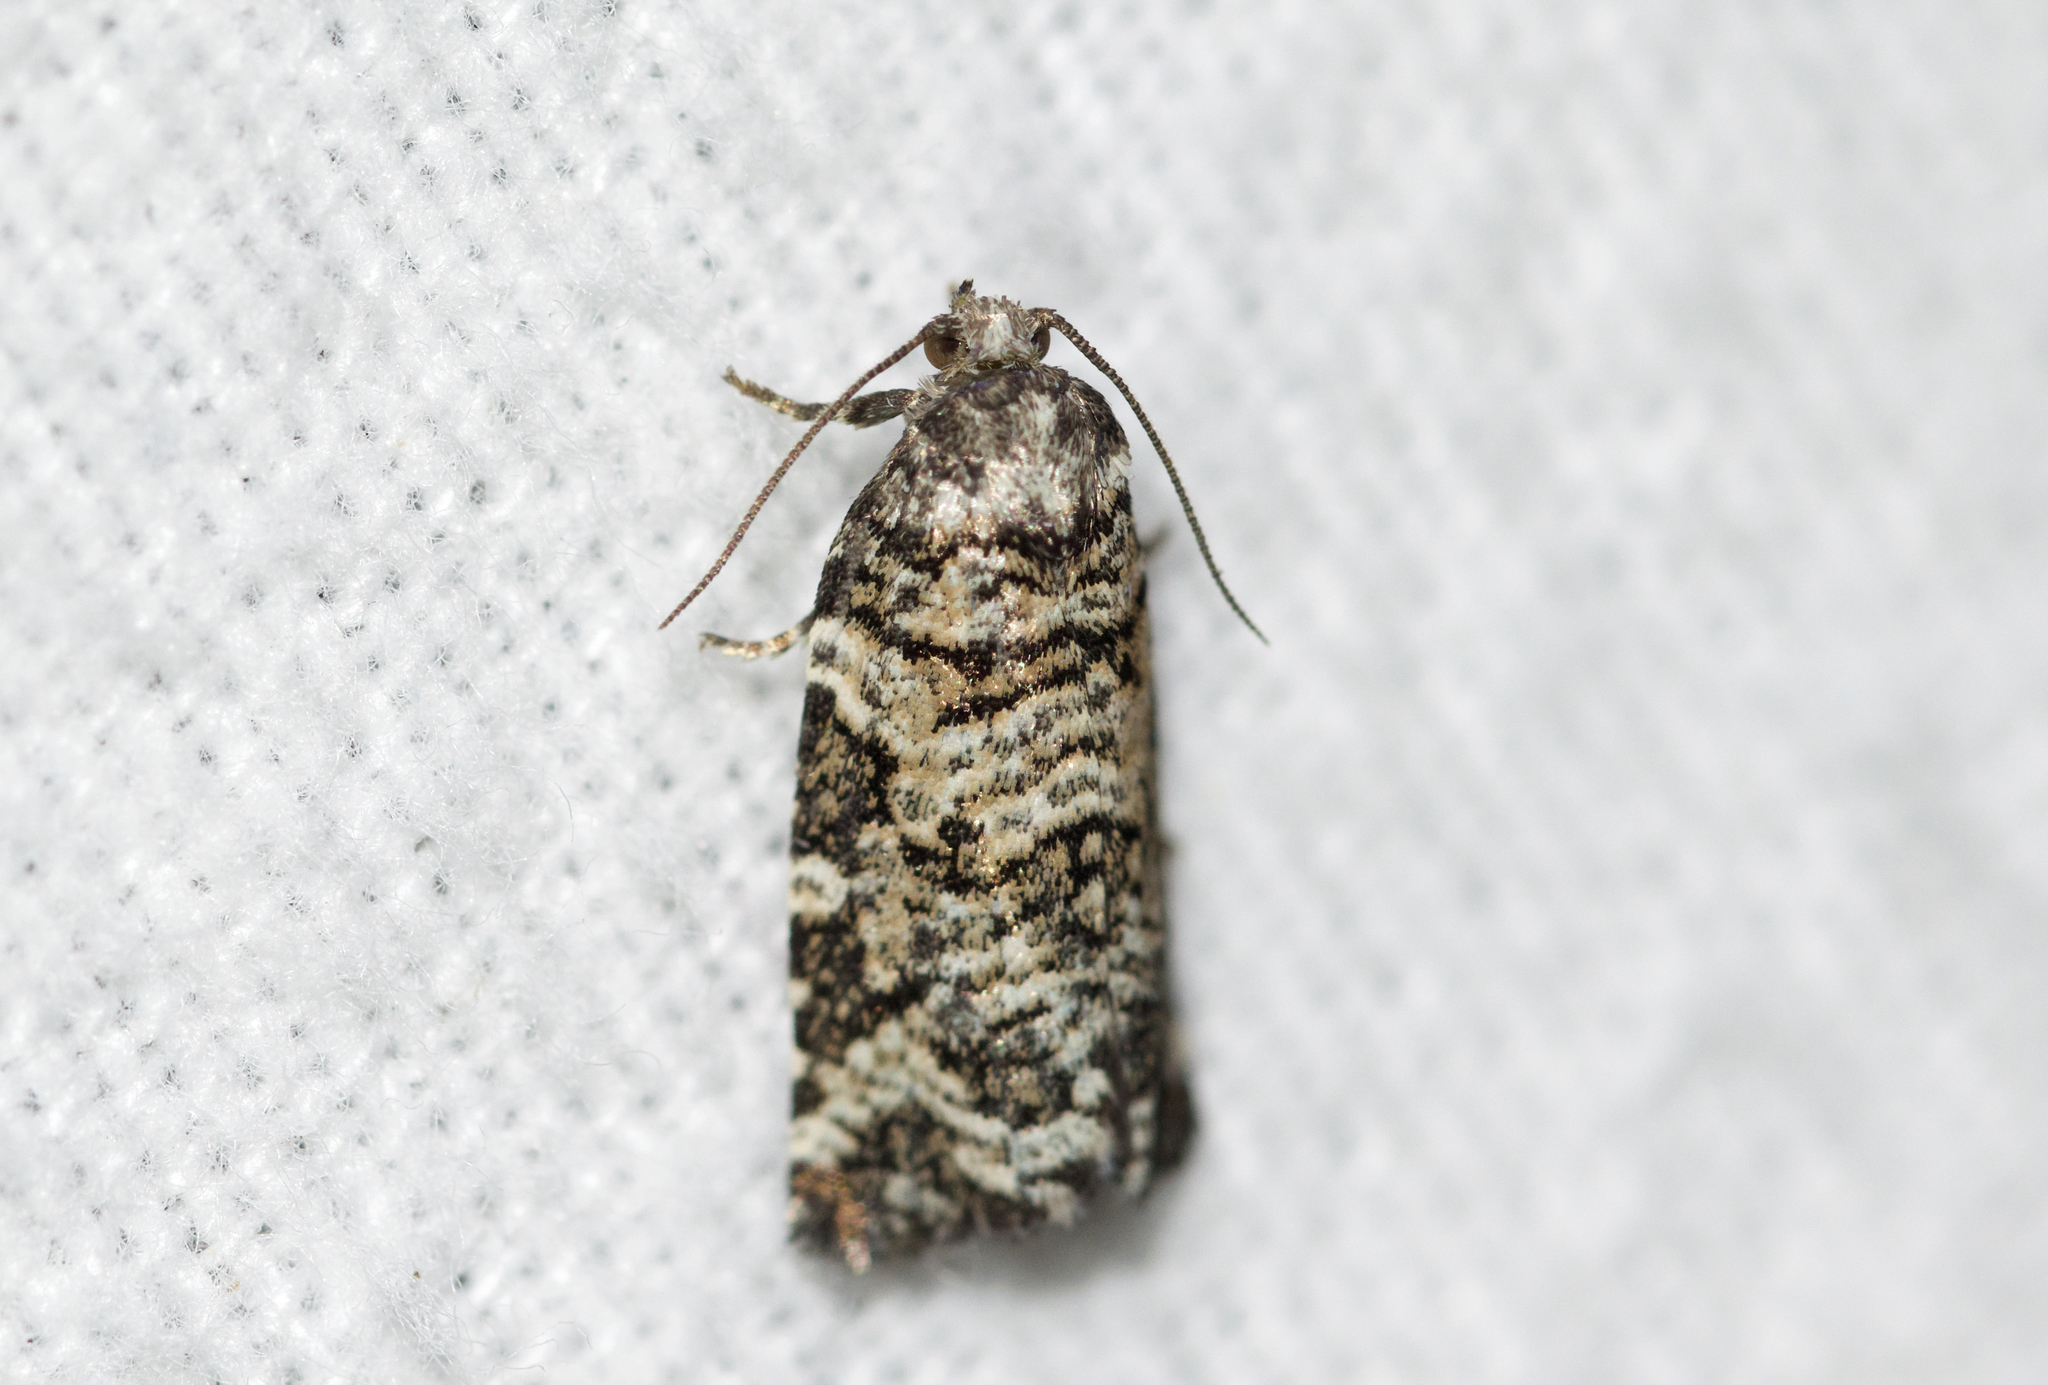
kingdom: Animalia
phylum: Arthropoda
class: Insecta
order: Lepidoptera
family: Tortricidae
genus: Archips
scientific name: Archips packardiana
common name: Spring spruce needle moth
